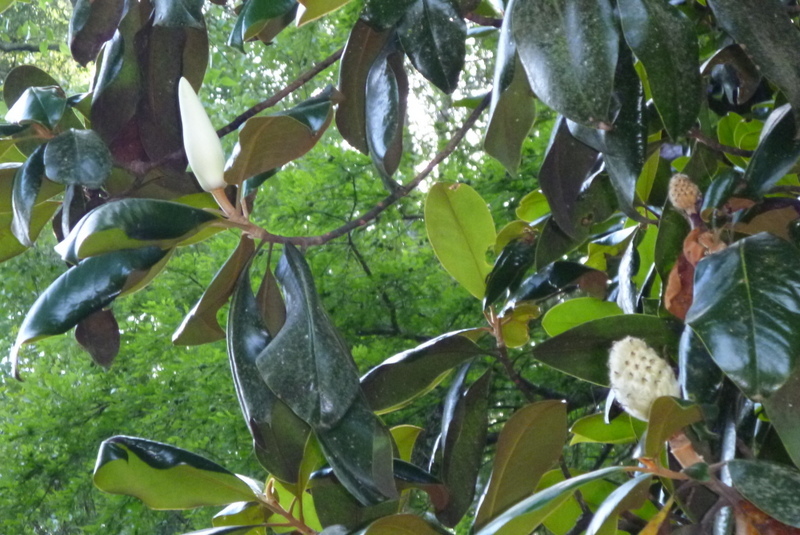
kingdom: Plantae
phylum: Tracheophyta
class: Magnoliopsida
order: Magnoliales
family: Magnoliaceae
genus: Magnolia
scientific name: Magnolia grandiflora
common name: Southern magnolia
